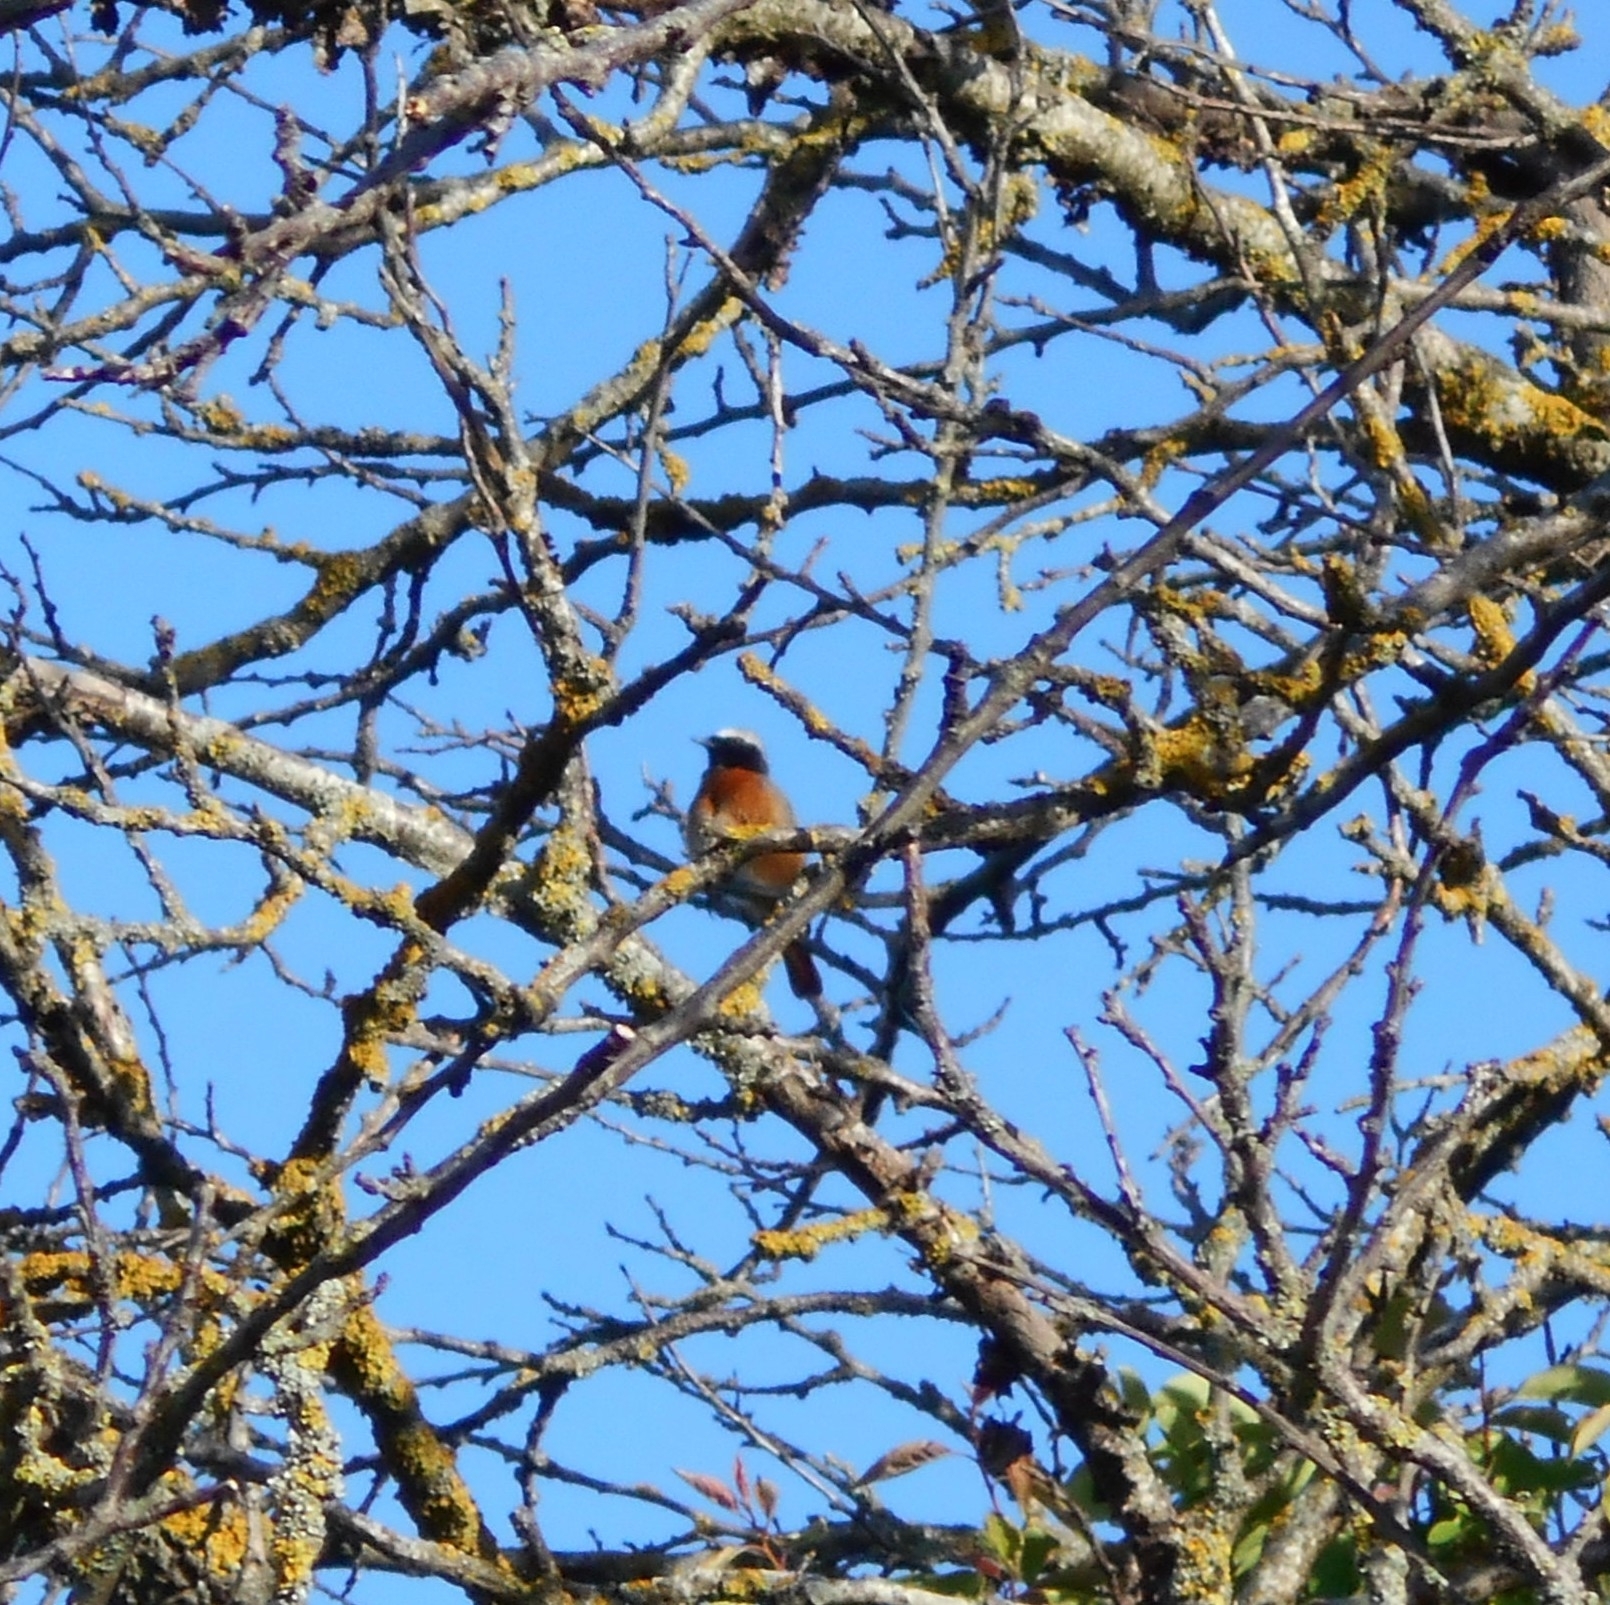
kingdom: Animalia
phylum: Chordata
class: Aves
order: Passeriformes
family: Muscicapidae
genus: Phoenicurus
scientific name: Phoenicurus phoenicurus
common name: Common redstart
